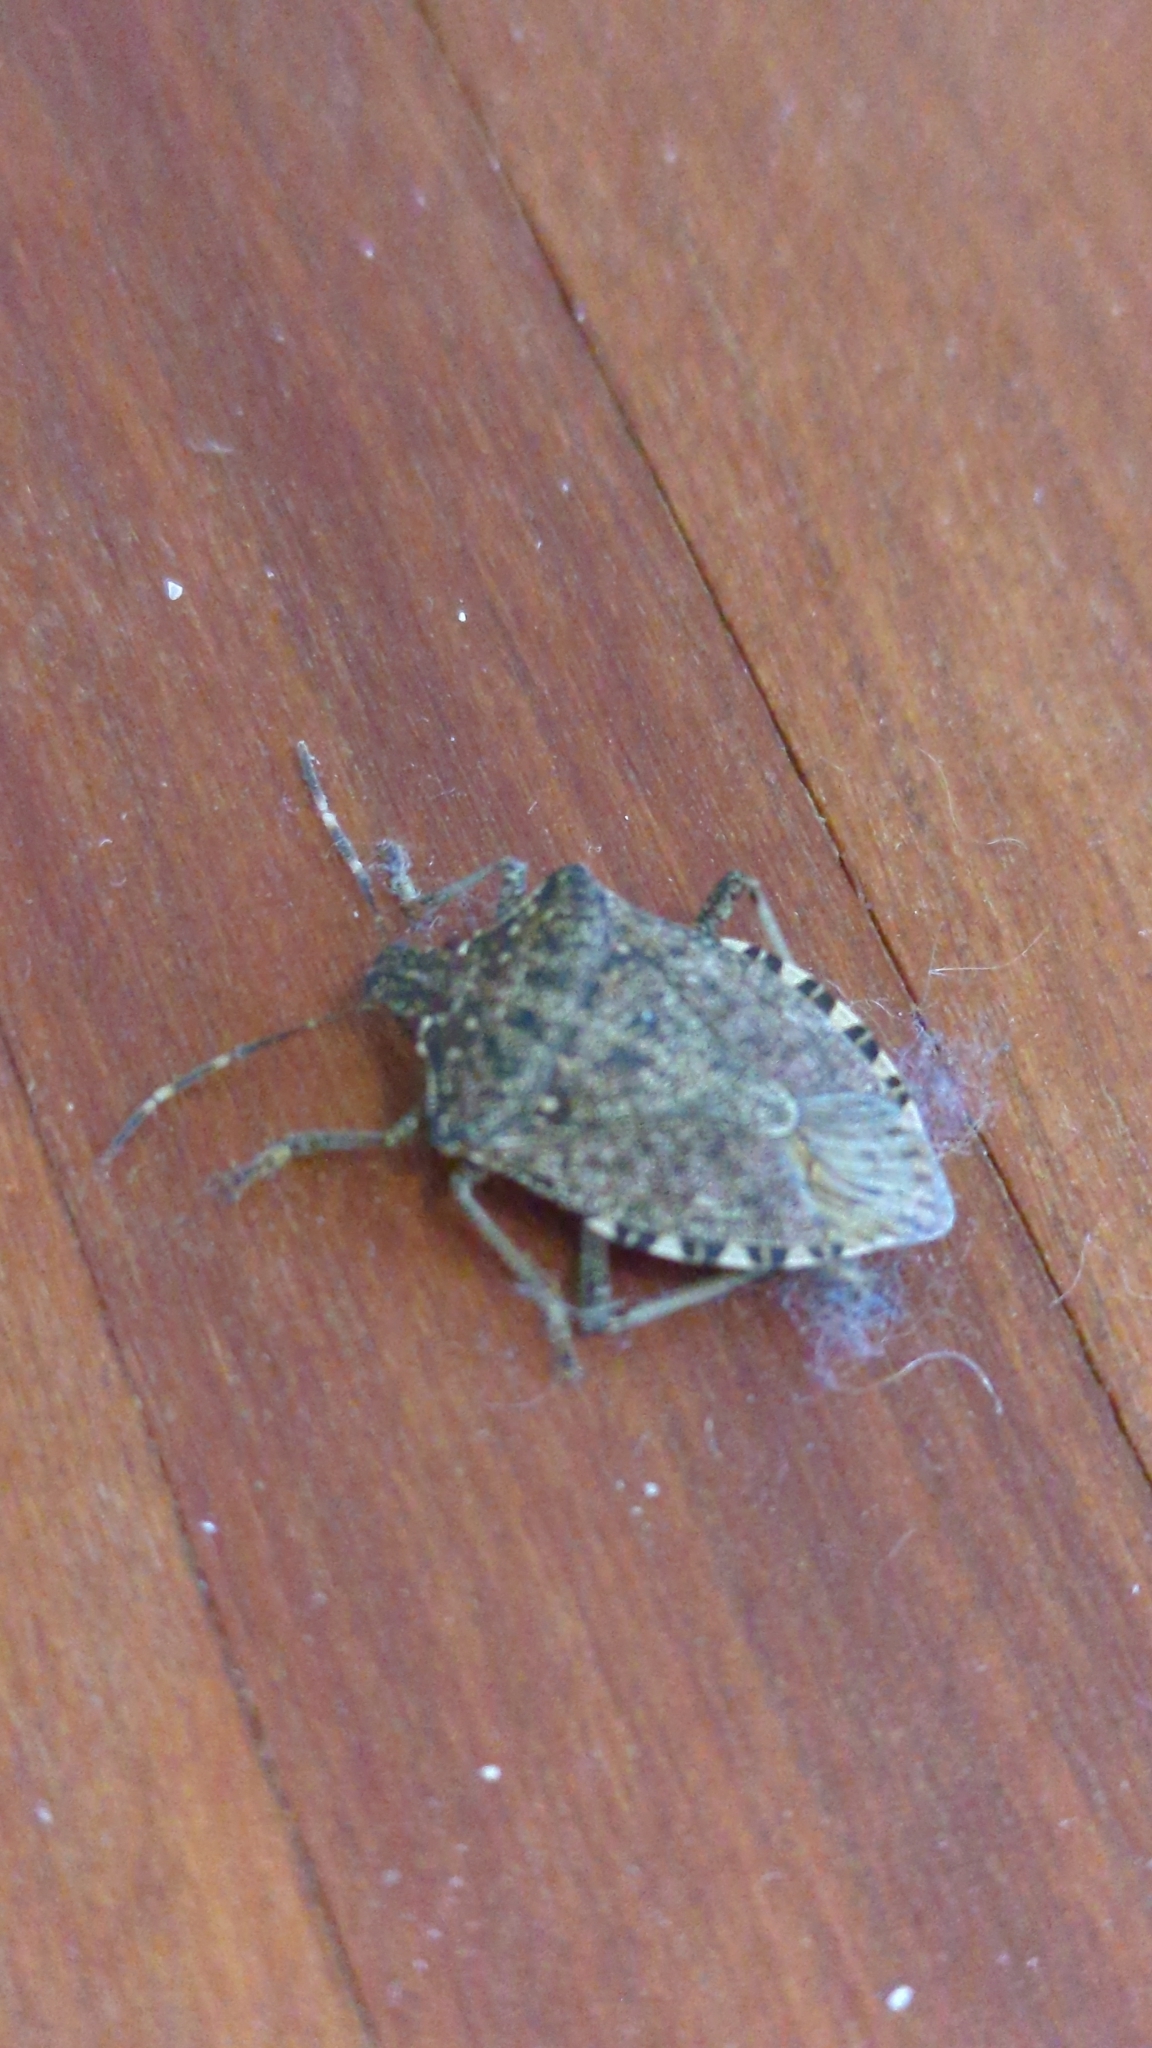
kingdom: Animalia
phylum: Arthropoda
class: Insecta
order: Hemiptera
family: Pentatomidae
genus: Halyomorpha
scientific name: Halyomorpha halys
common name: Brown marmorated stink bug
